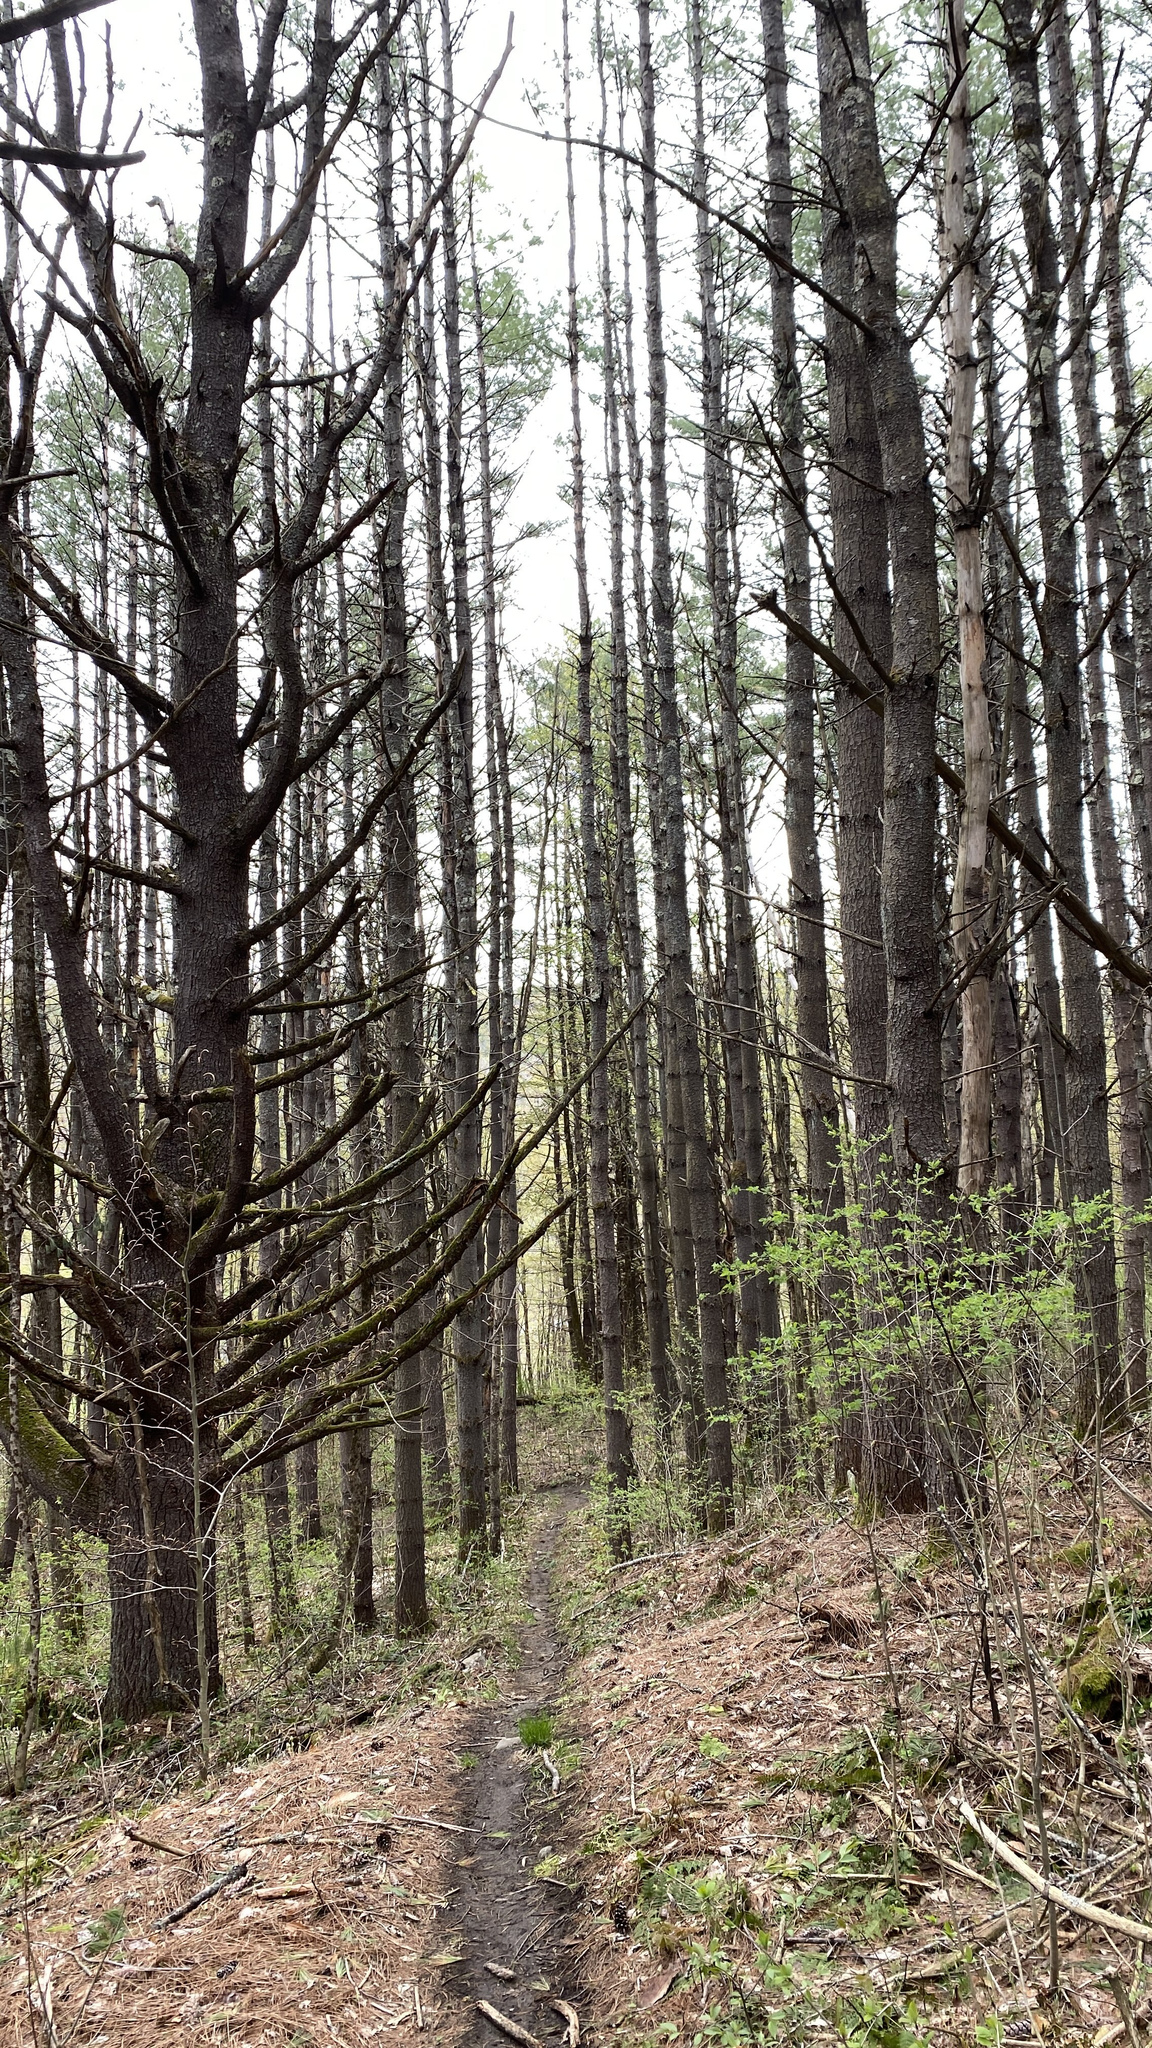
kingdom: Plantae
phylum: Tracheophyta
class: Pinopsida
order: Pinales
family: Pinaceae
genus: Pinus
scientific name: Pinus strobus
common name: Weymouth pine
